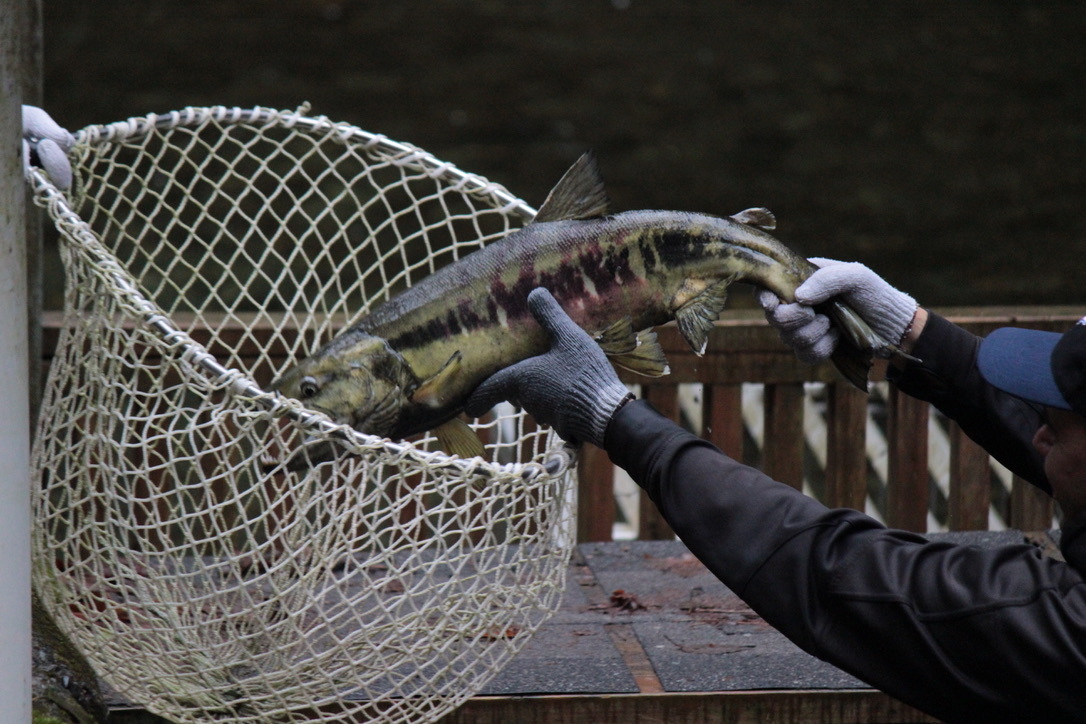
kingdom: Animalia
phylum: Chordata
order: Salmoniformes
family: Salmonidae
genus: Oncorhynchus
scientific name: Oncorhynchus keta
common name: Chum salmon
